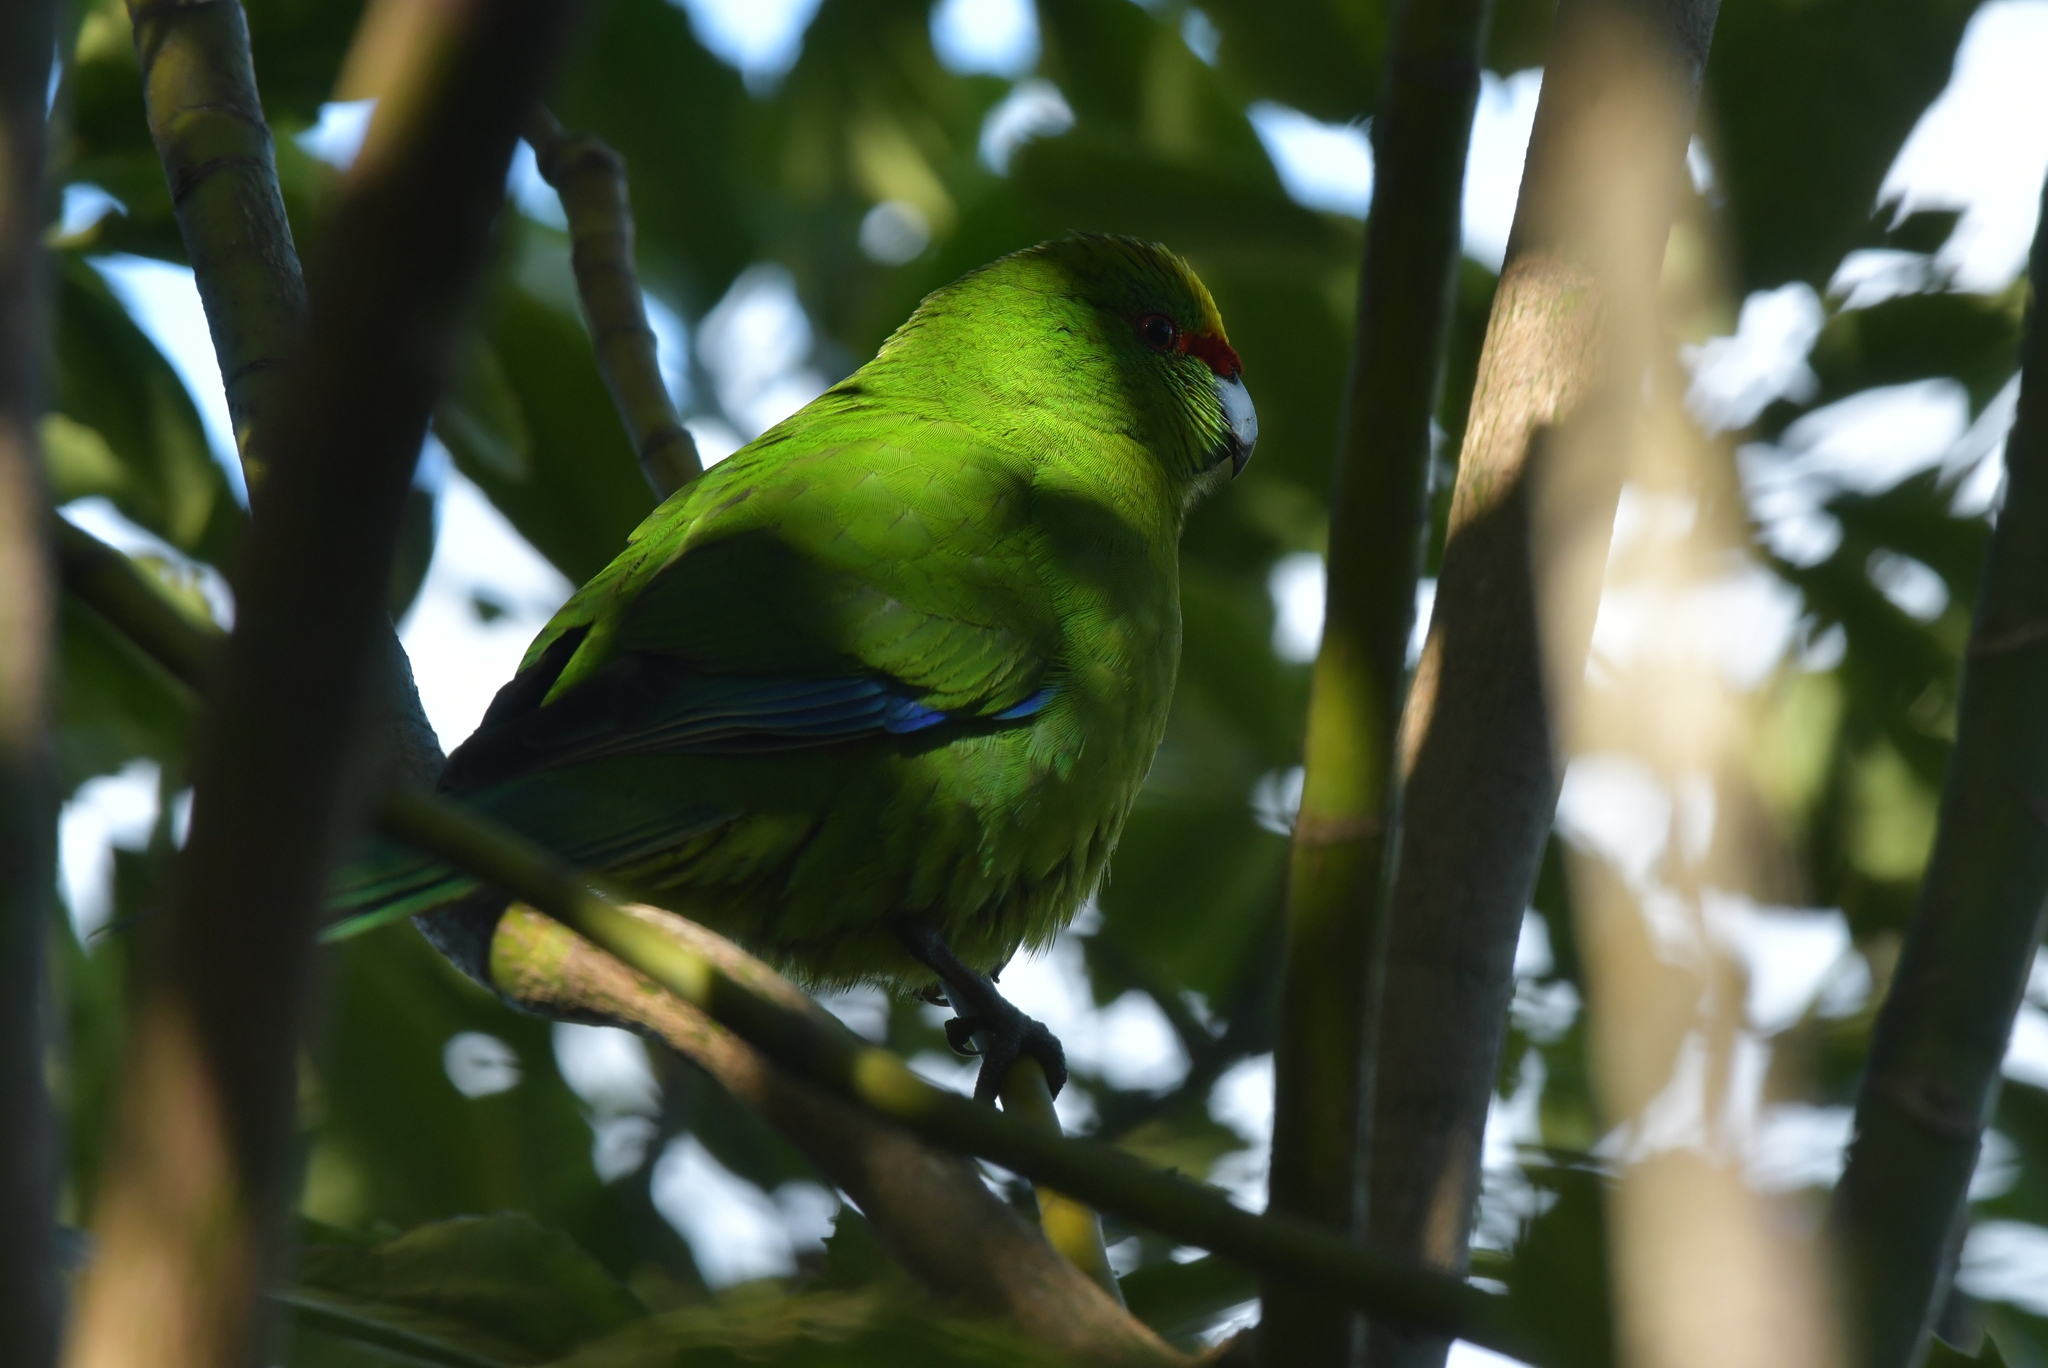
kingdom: Animalia
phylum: Chordata
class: Aves
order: Psittaciformes
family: Psittacidae
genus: Cyanoramphus
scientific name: Cyanoramphus auriceps
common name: Yellow-crowned parakeet
